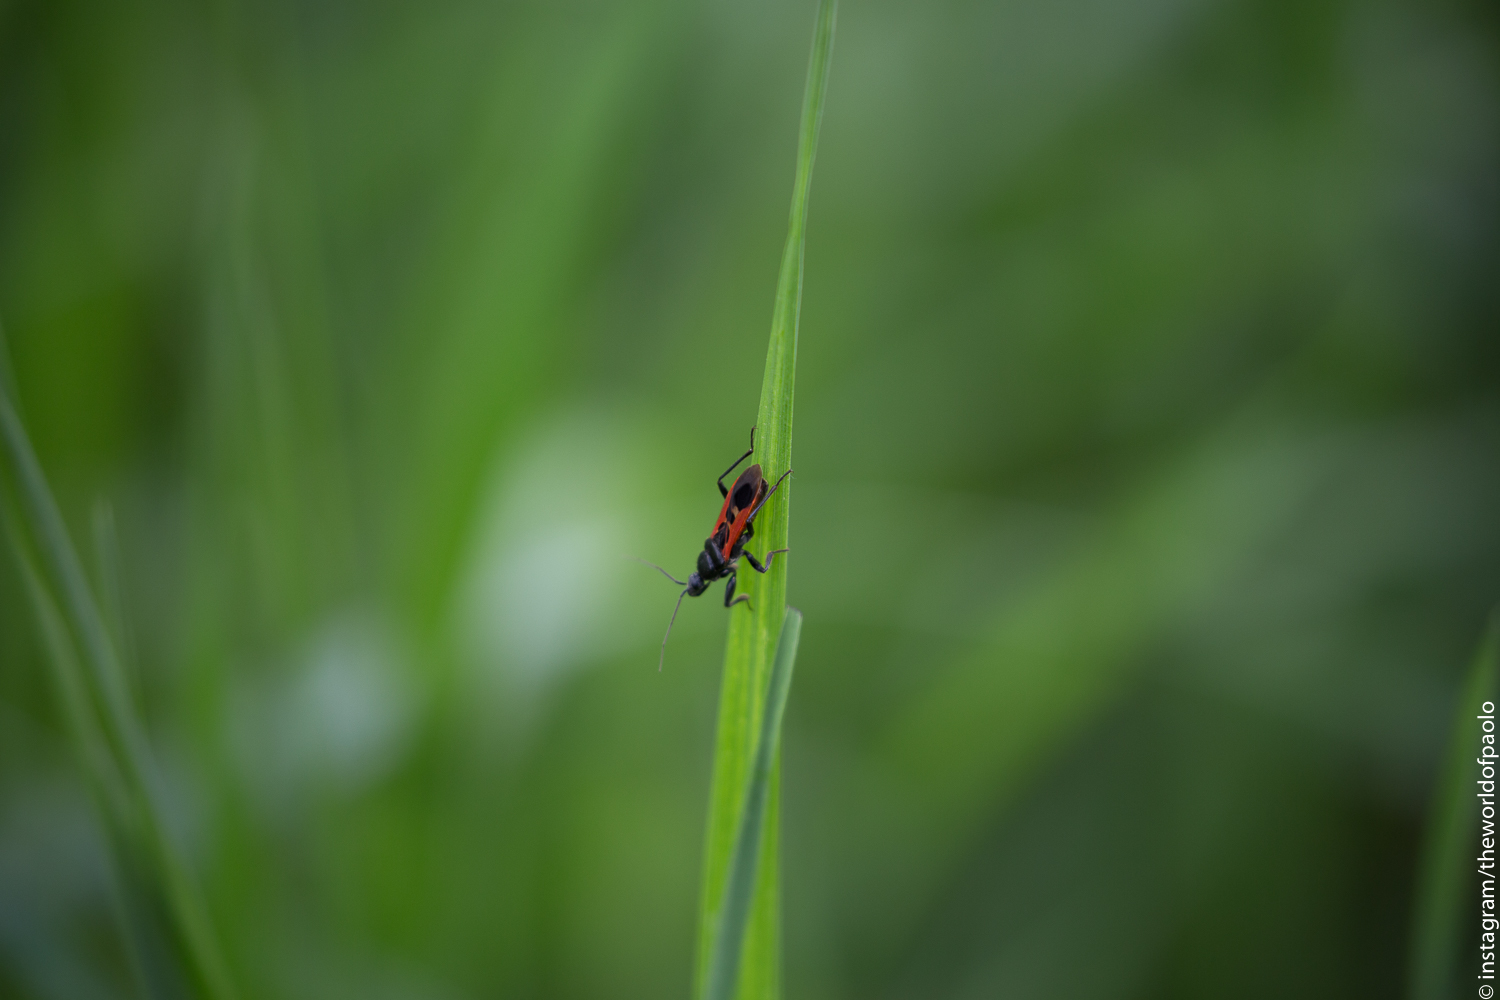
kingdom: Animalia
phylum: Arthropoda
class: Insecta
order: Hemiptera
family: Reduviidae
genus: Peirates
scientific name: Peirates hybridus
